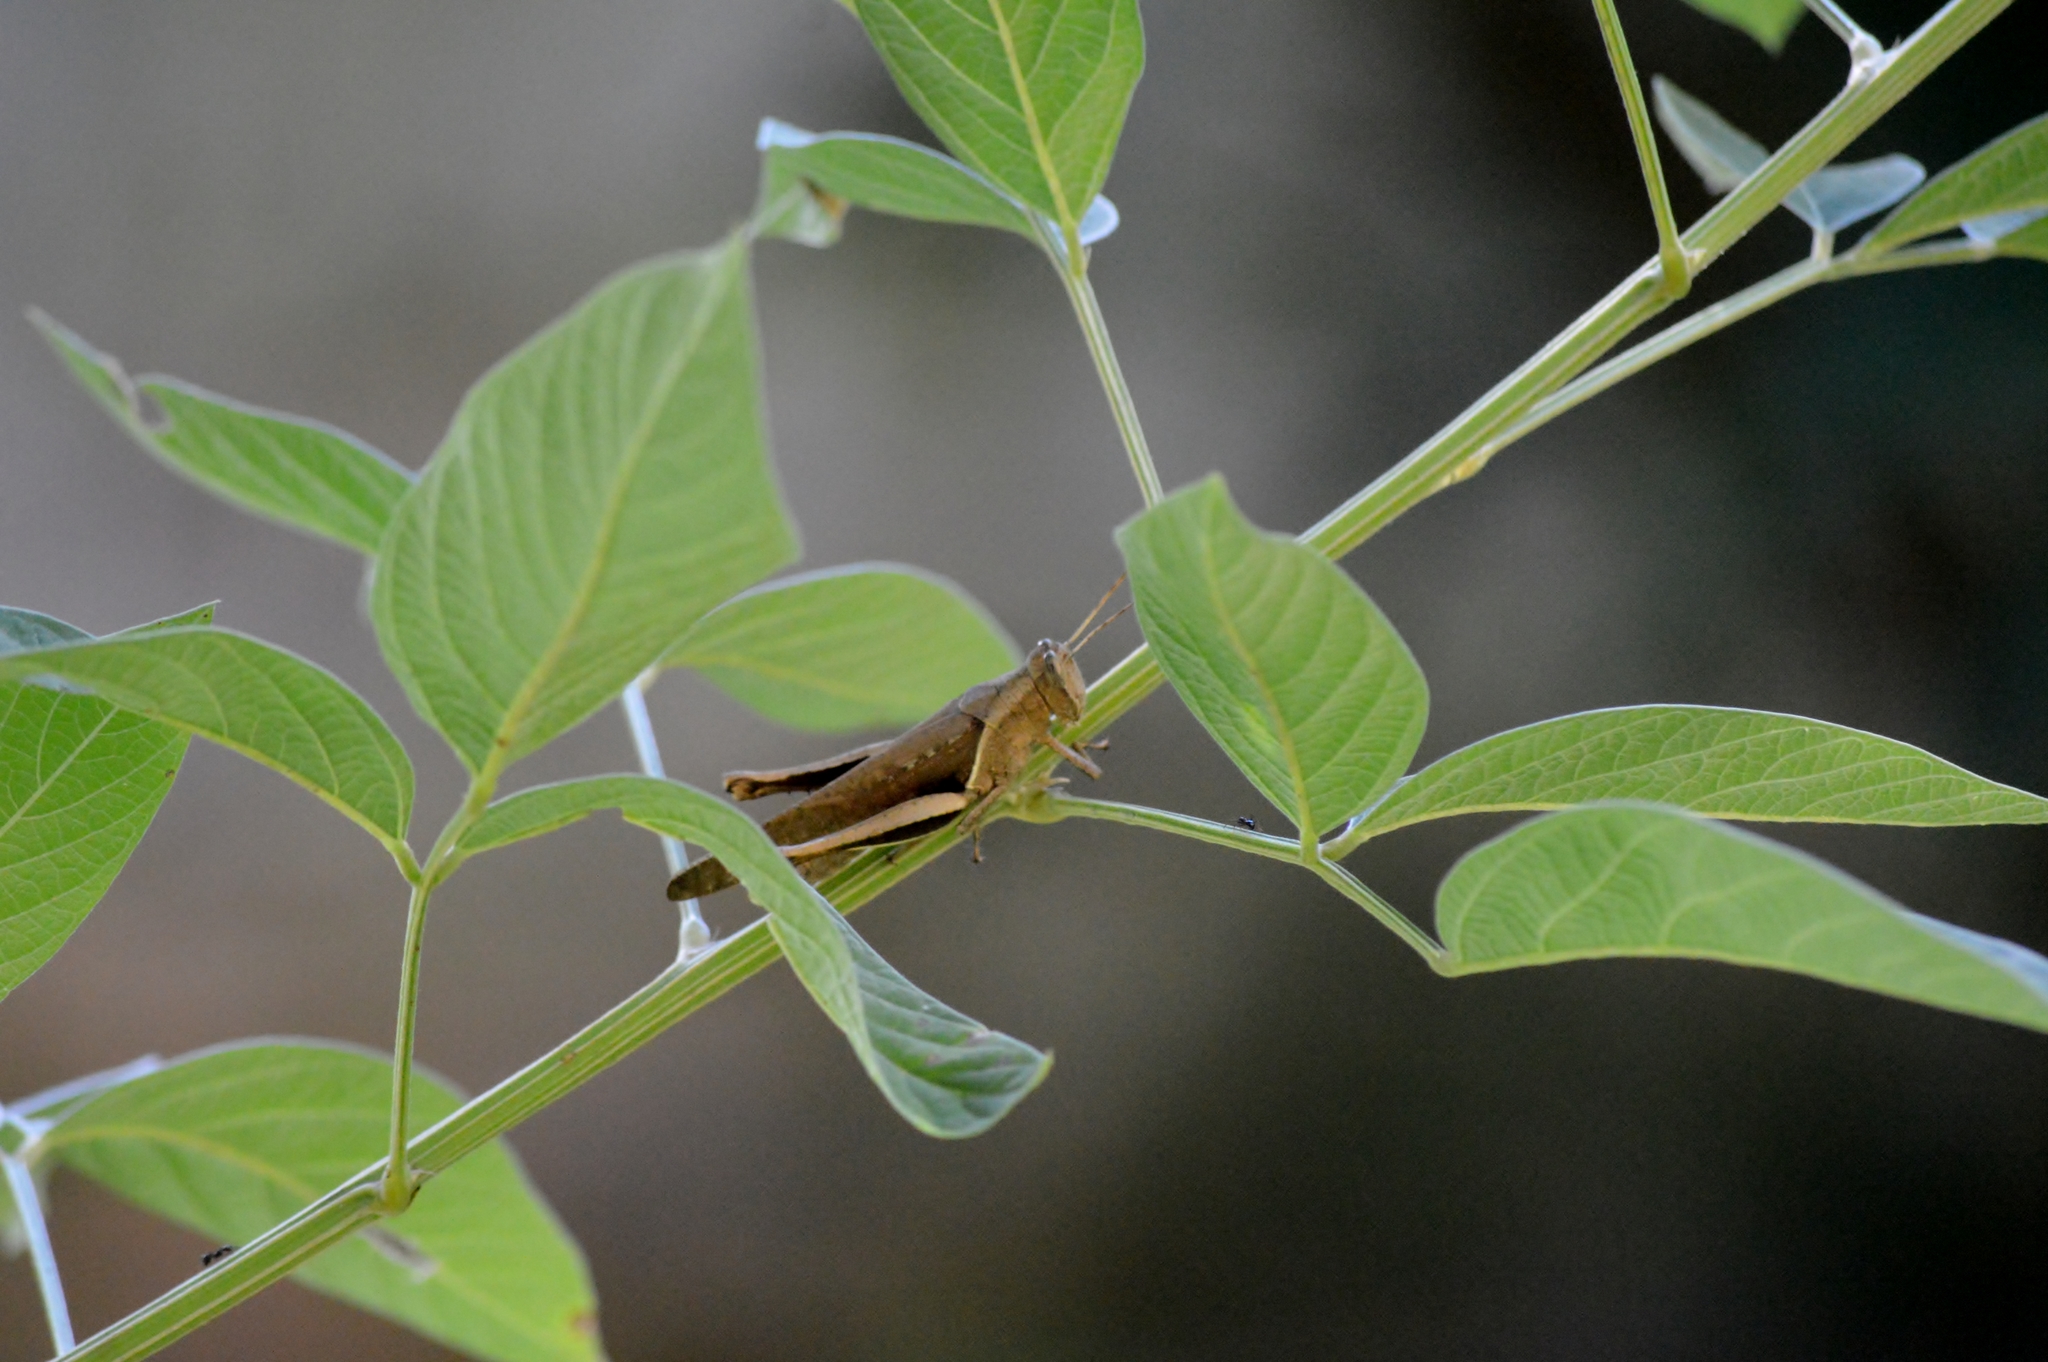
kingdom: Animalia
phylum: Arthropoda
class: Insecta
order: Orthoptera
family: Acrididae
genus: Abracris
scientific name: Abracris flavolineata
